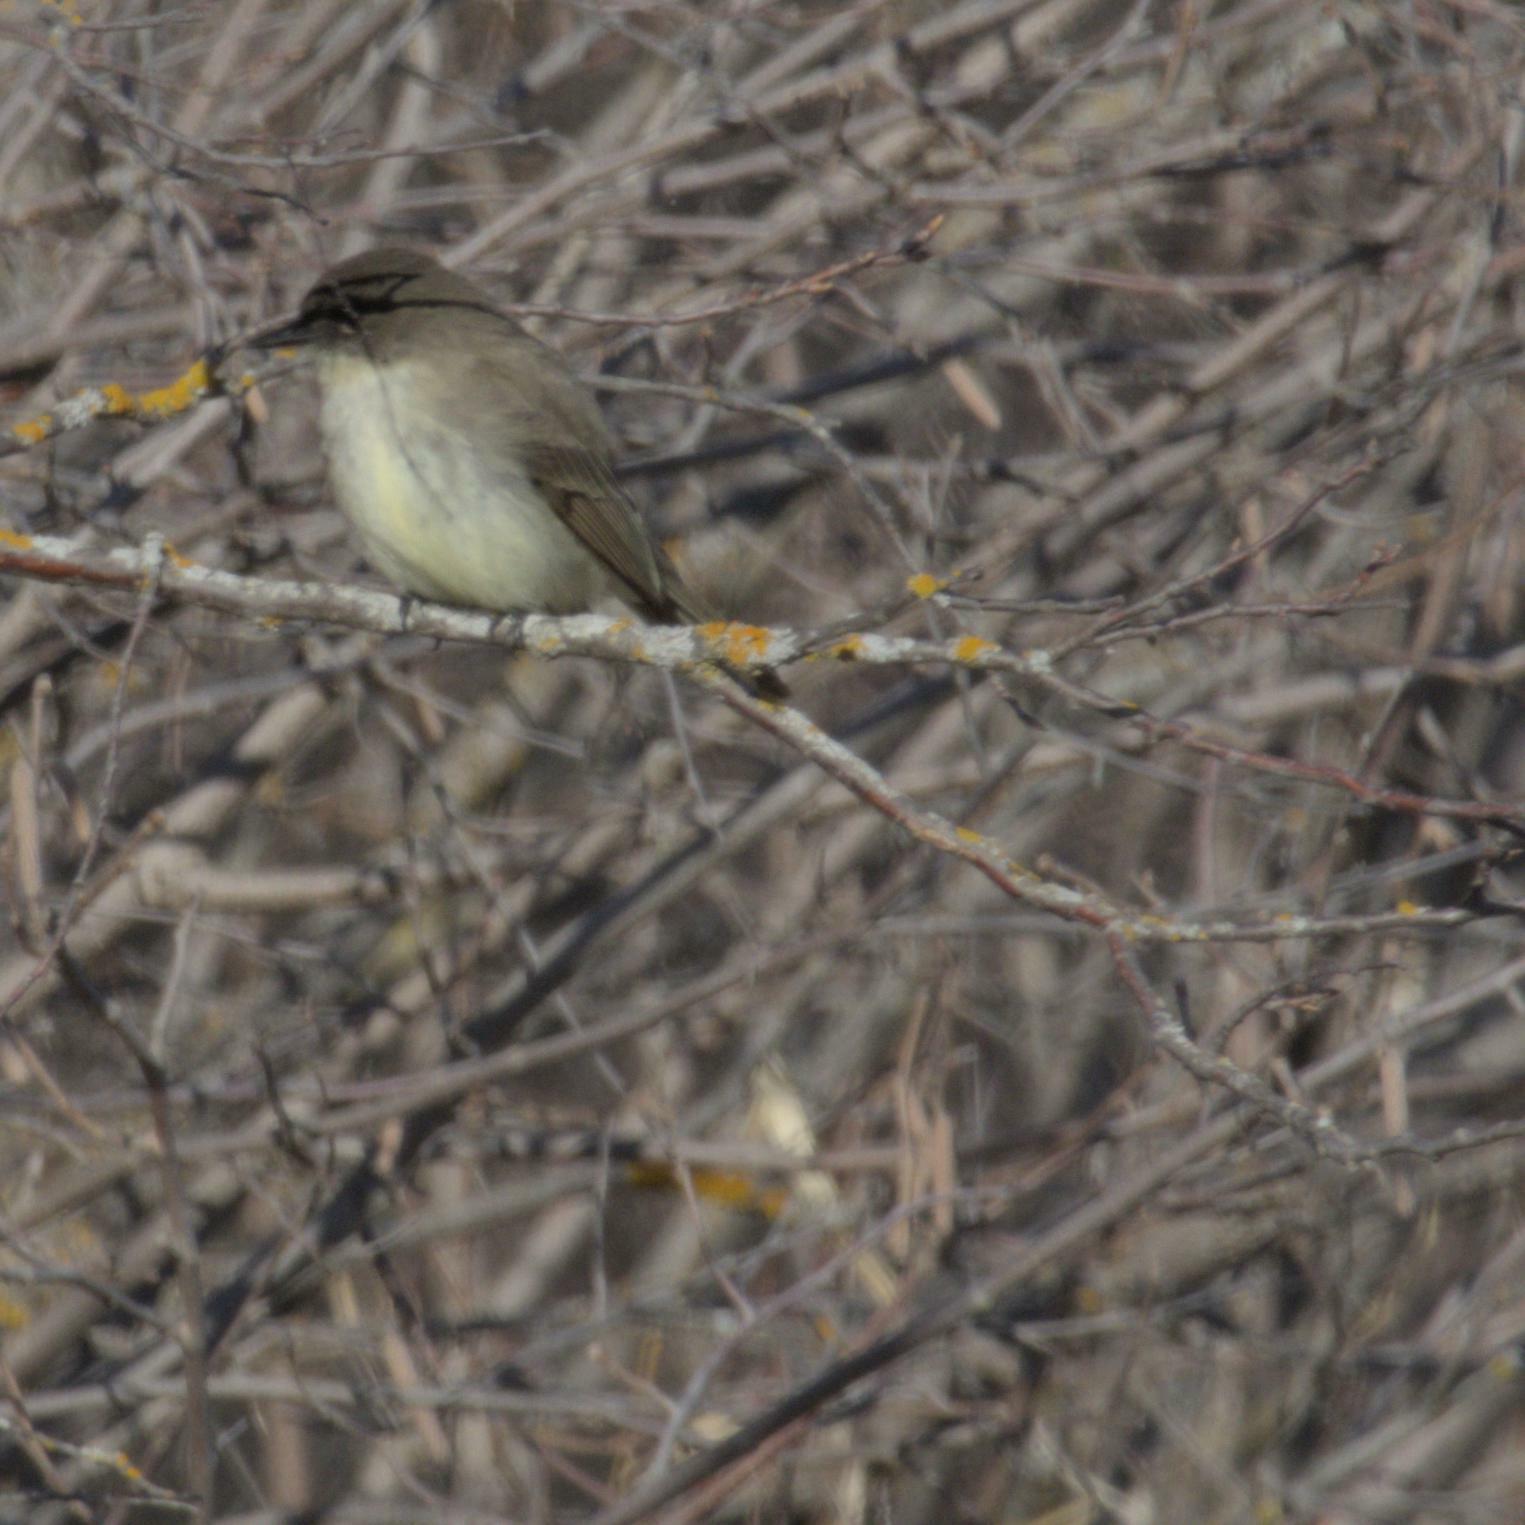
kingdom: Animalia
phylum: Chordata
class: Aves
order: Passeriformes
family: Tyrannidae
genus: Sayornis
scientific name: Sayornis phoebe
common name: Eastern phoebe
